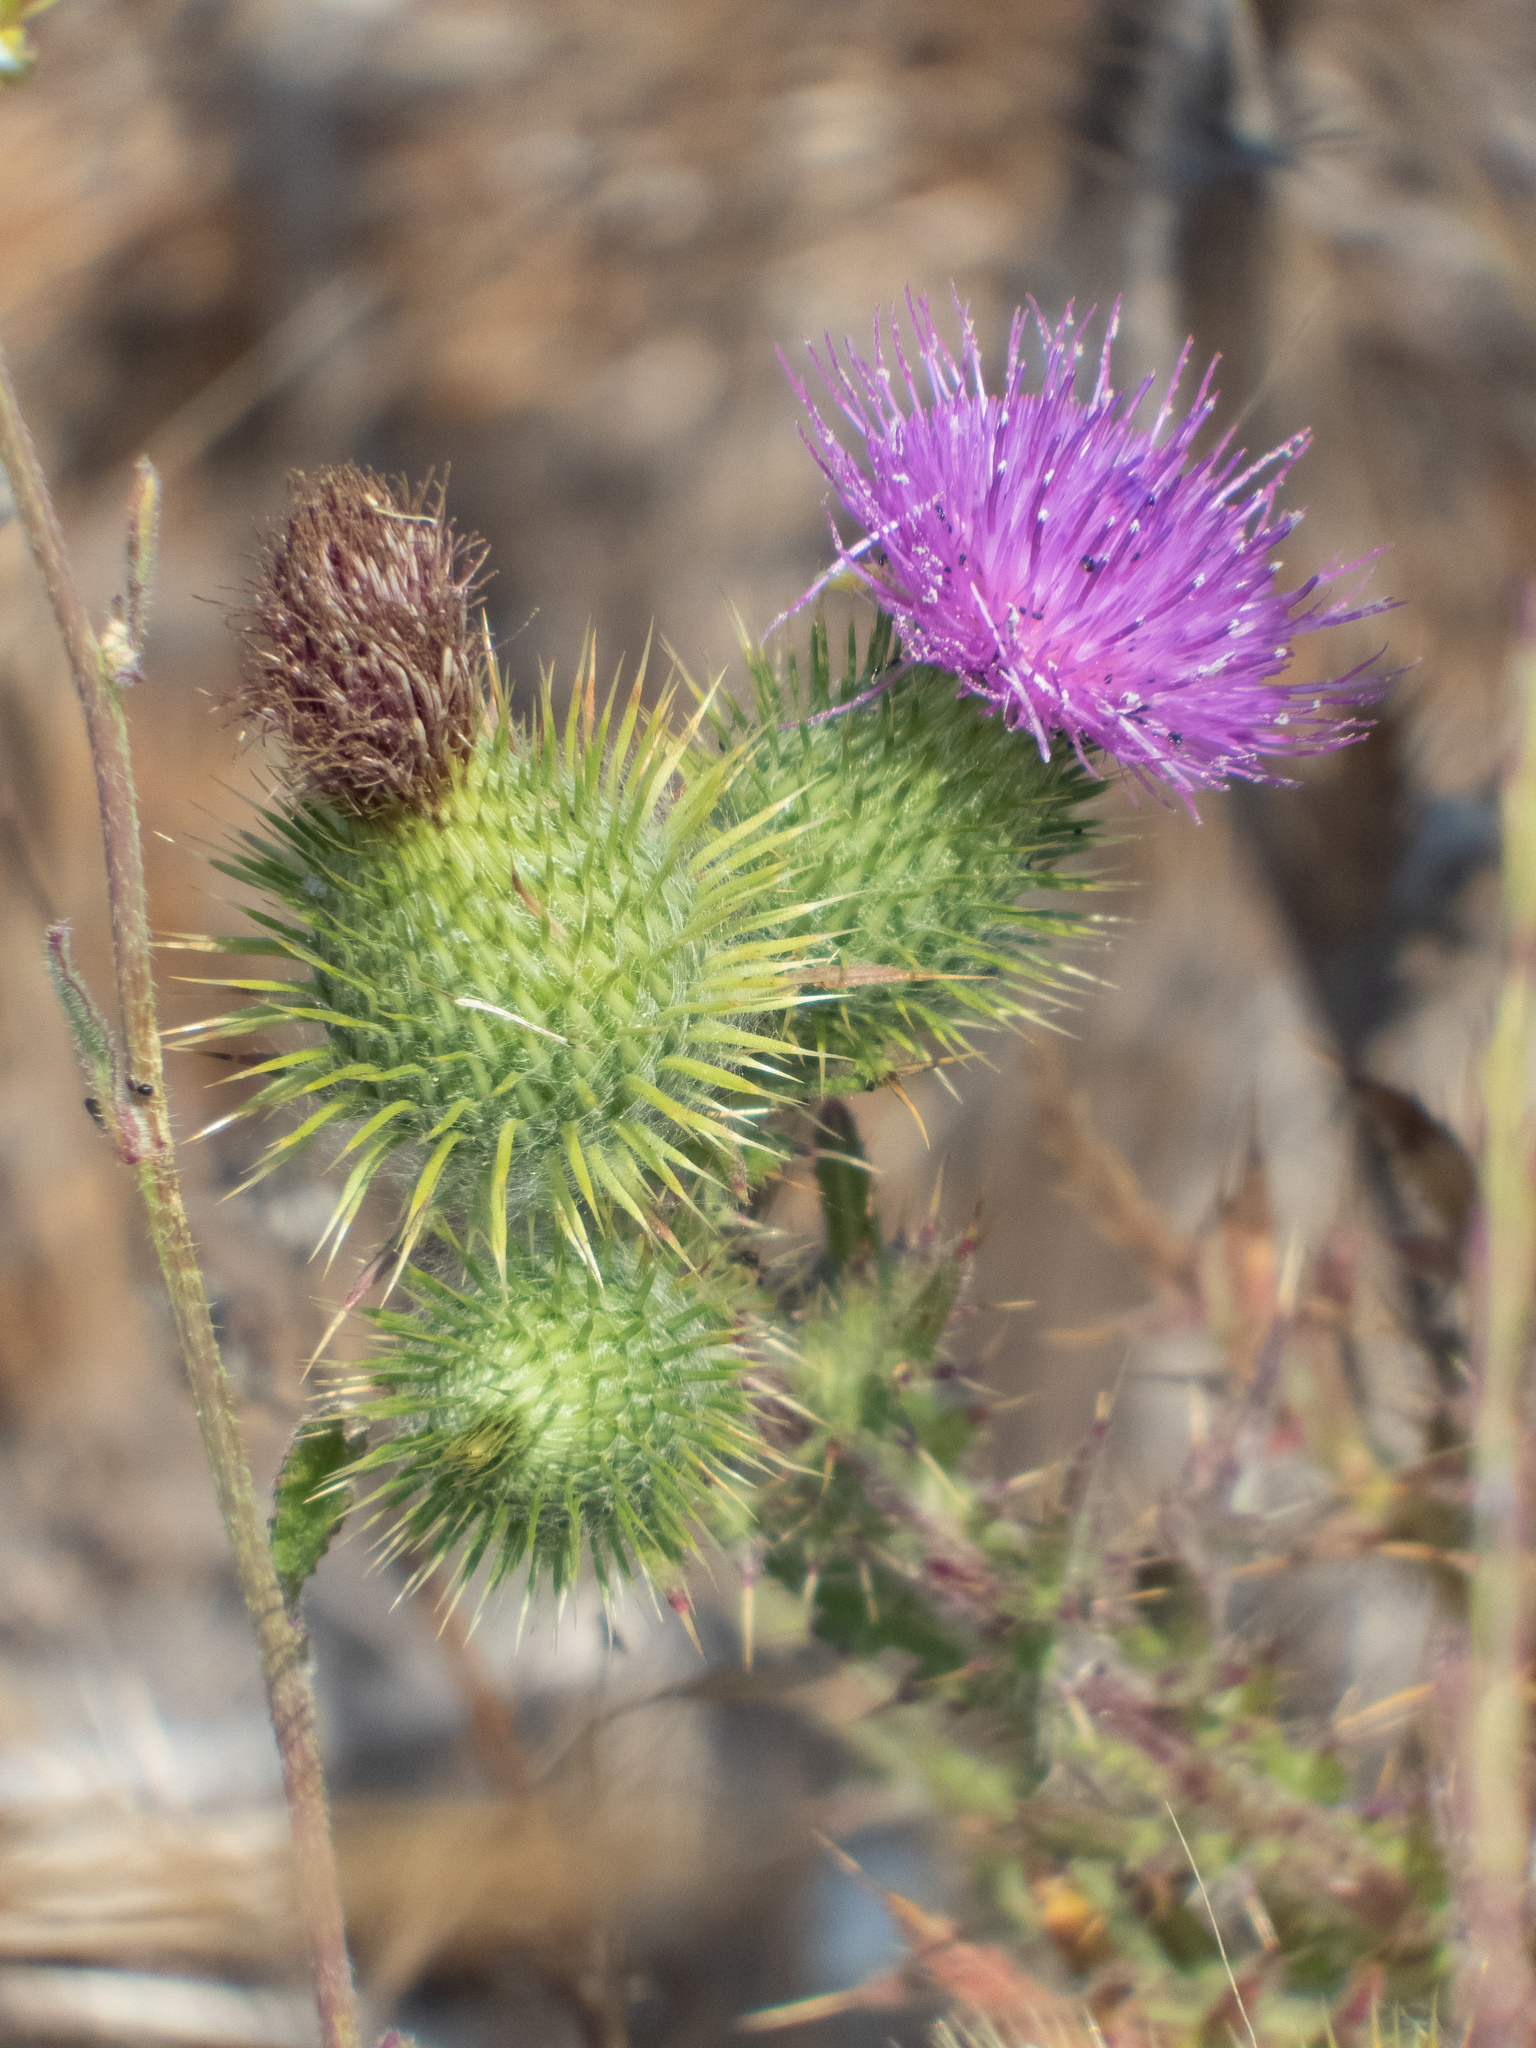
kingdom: Plantae
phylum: Tracheophyta
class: Magnoliopsida
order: Asterales
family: Asteraceae
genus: Cirsium
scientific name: Cirsium vulgare
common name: Bull thistle
